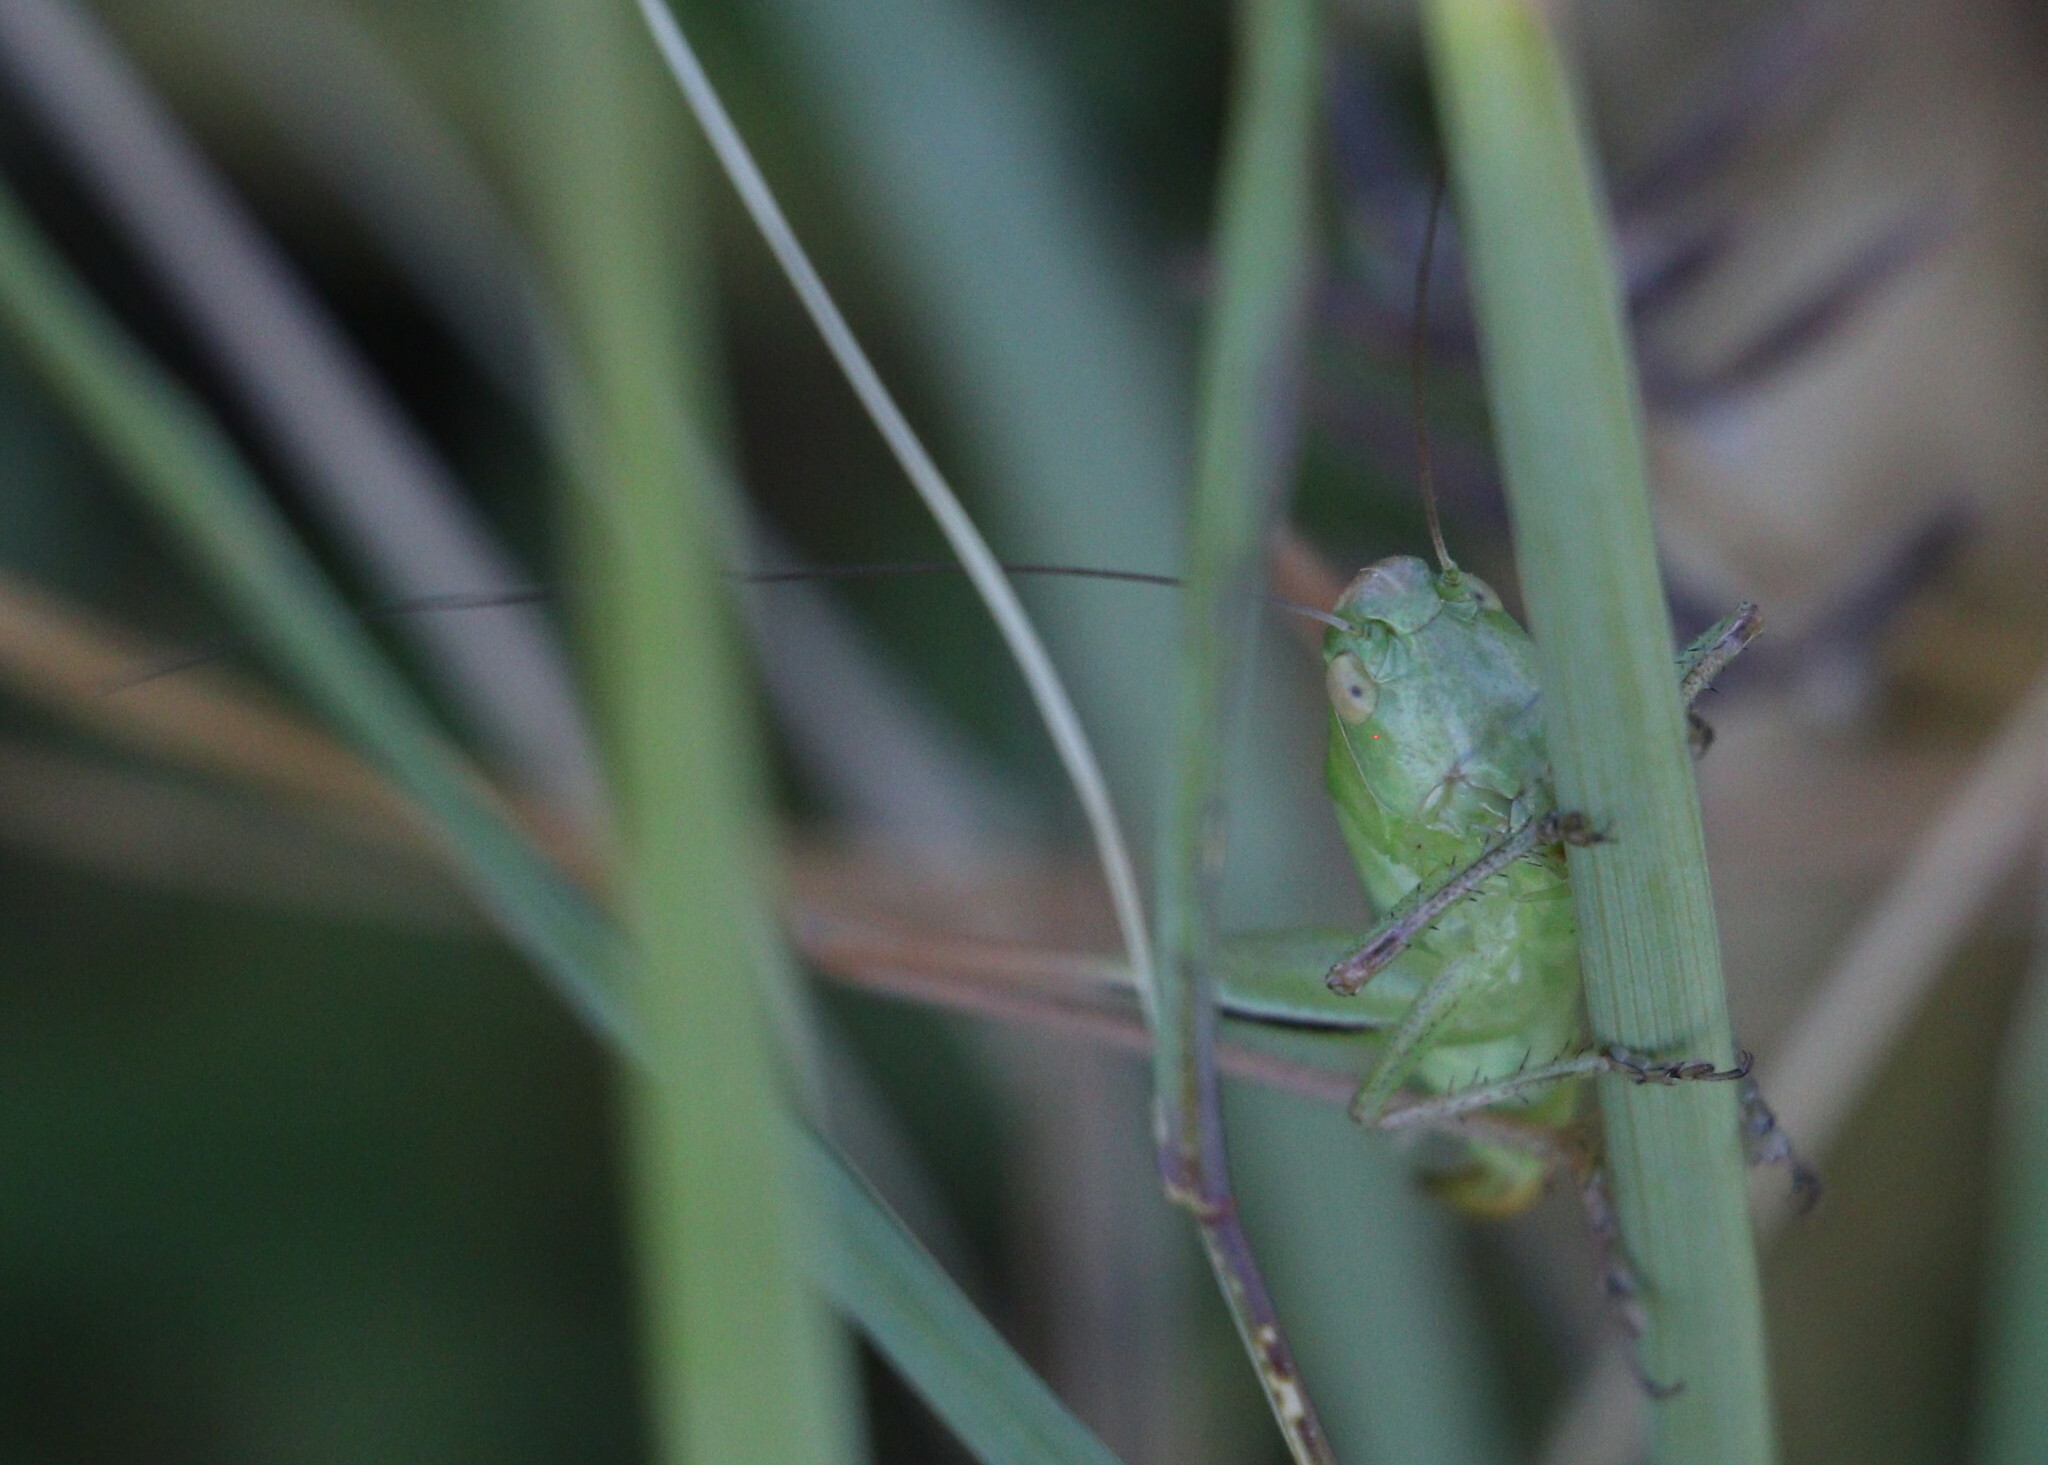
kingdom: Animalia
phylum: Arthropoda
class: Insecta
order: Orthoptera
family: Tettigoniidae
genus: Bicolorana
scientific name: Bicolorana bicolor
